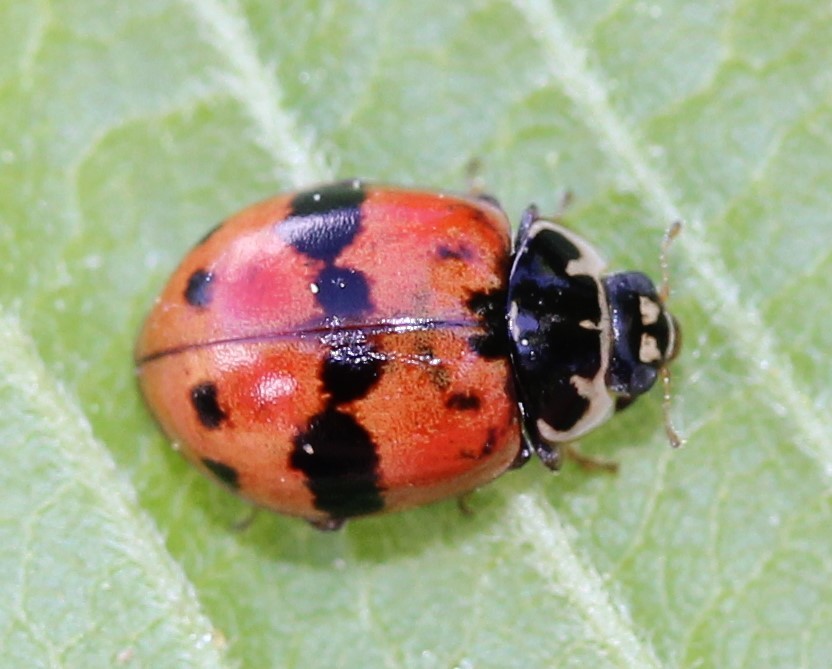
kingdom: Animalia
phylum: Arthropoda
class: Insecta
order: Coleoptera
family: Coccinellidae
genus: Adalia
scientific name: Adalia bipunctata
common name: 2-spot ladybird
